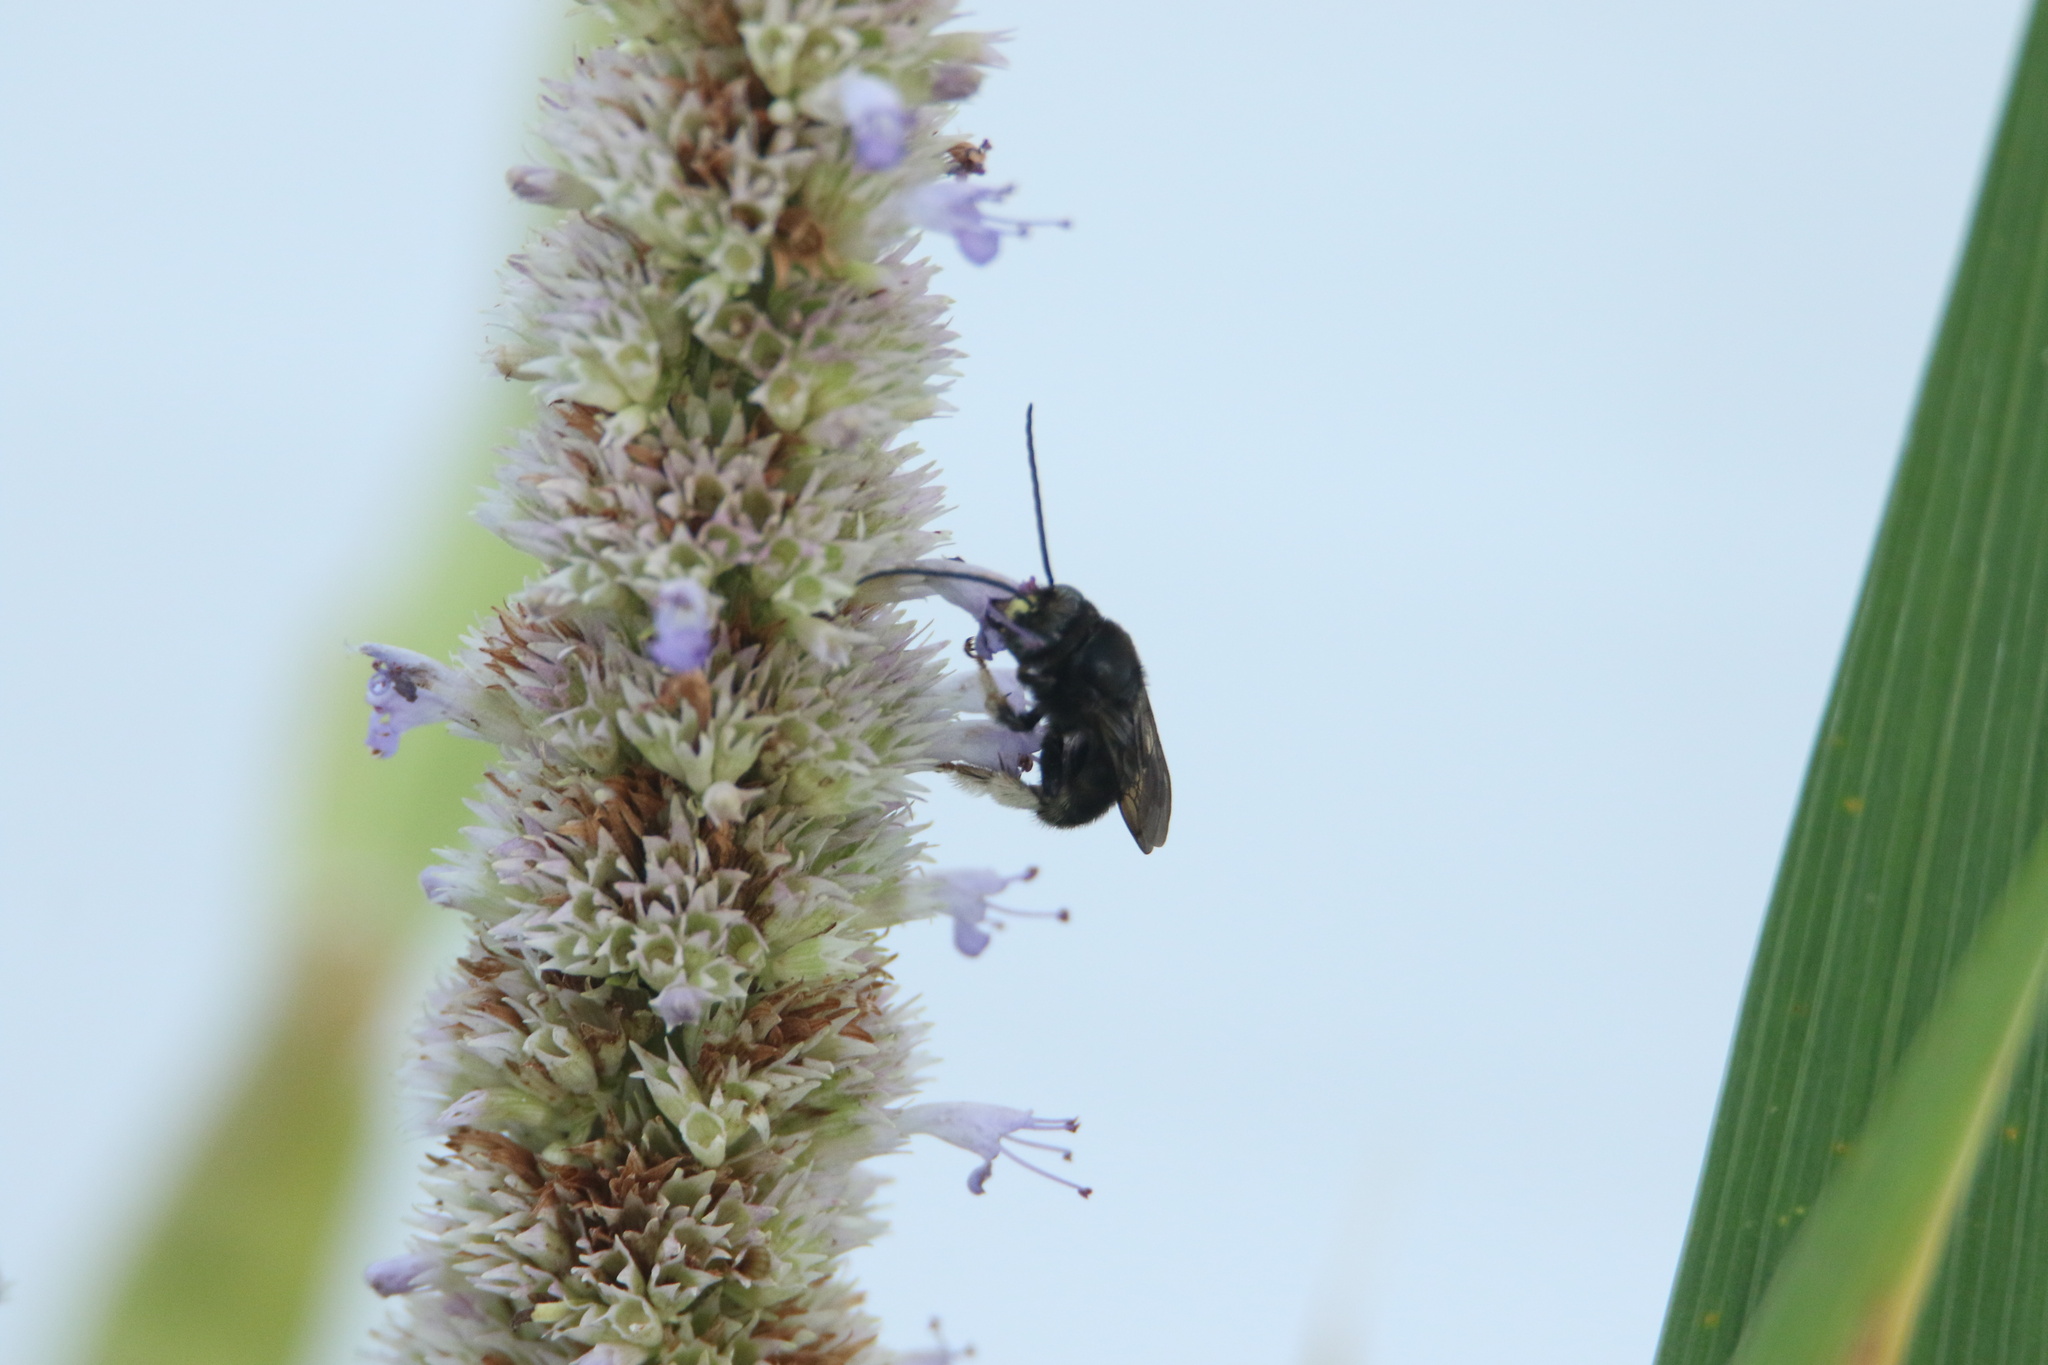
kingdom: Animalia
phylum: Arthropoda
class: Insecta
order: Hymenoptera
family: Apidae
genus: Melissodes
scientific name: Melissodes bimaculatus
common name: Two-spotted long-horned bee
